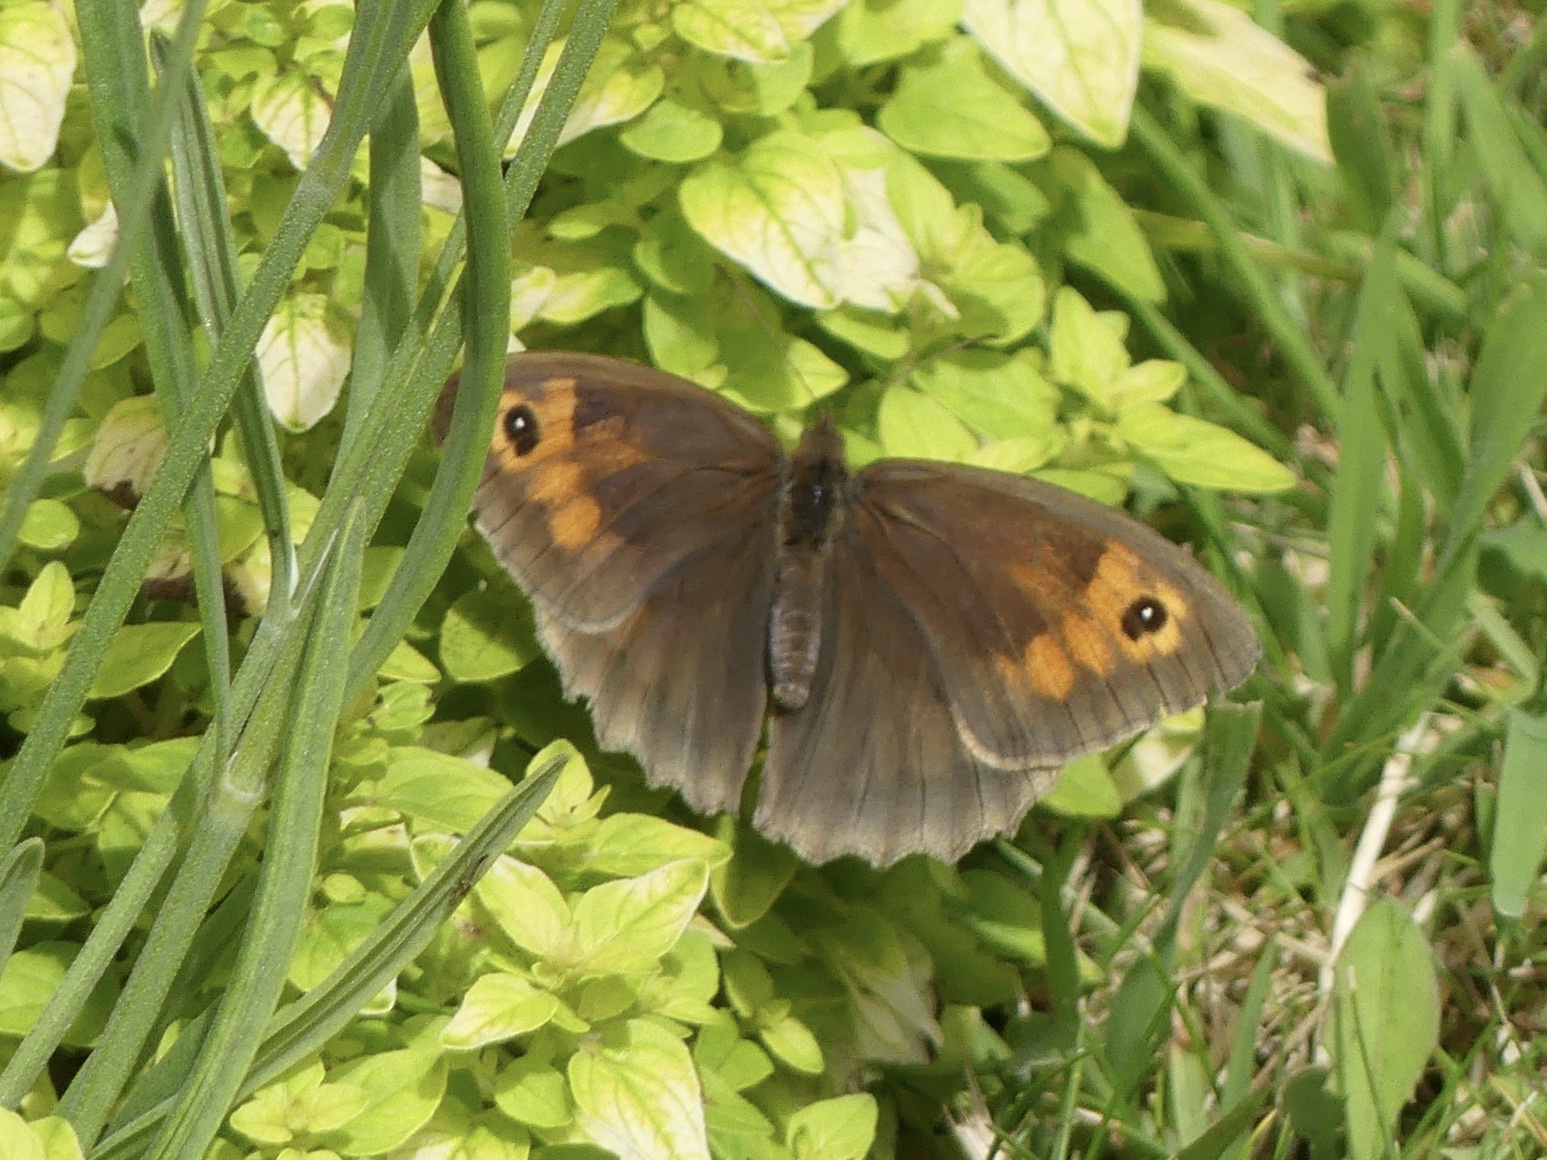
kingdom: Animalia
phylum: Arthropoda
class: Insecta
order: Lepidoptera
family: Nymphalidae
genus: Maniola
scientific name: Maniola jurtina
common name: Meadow brown
